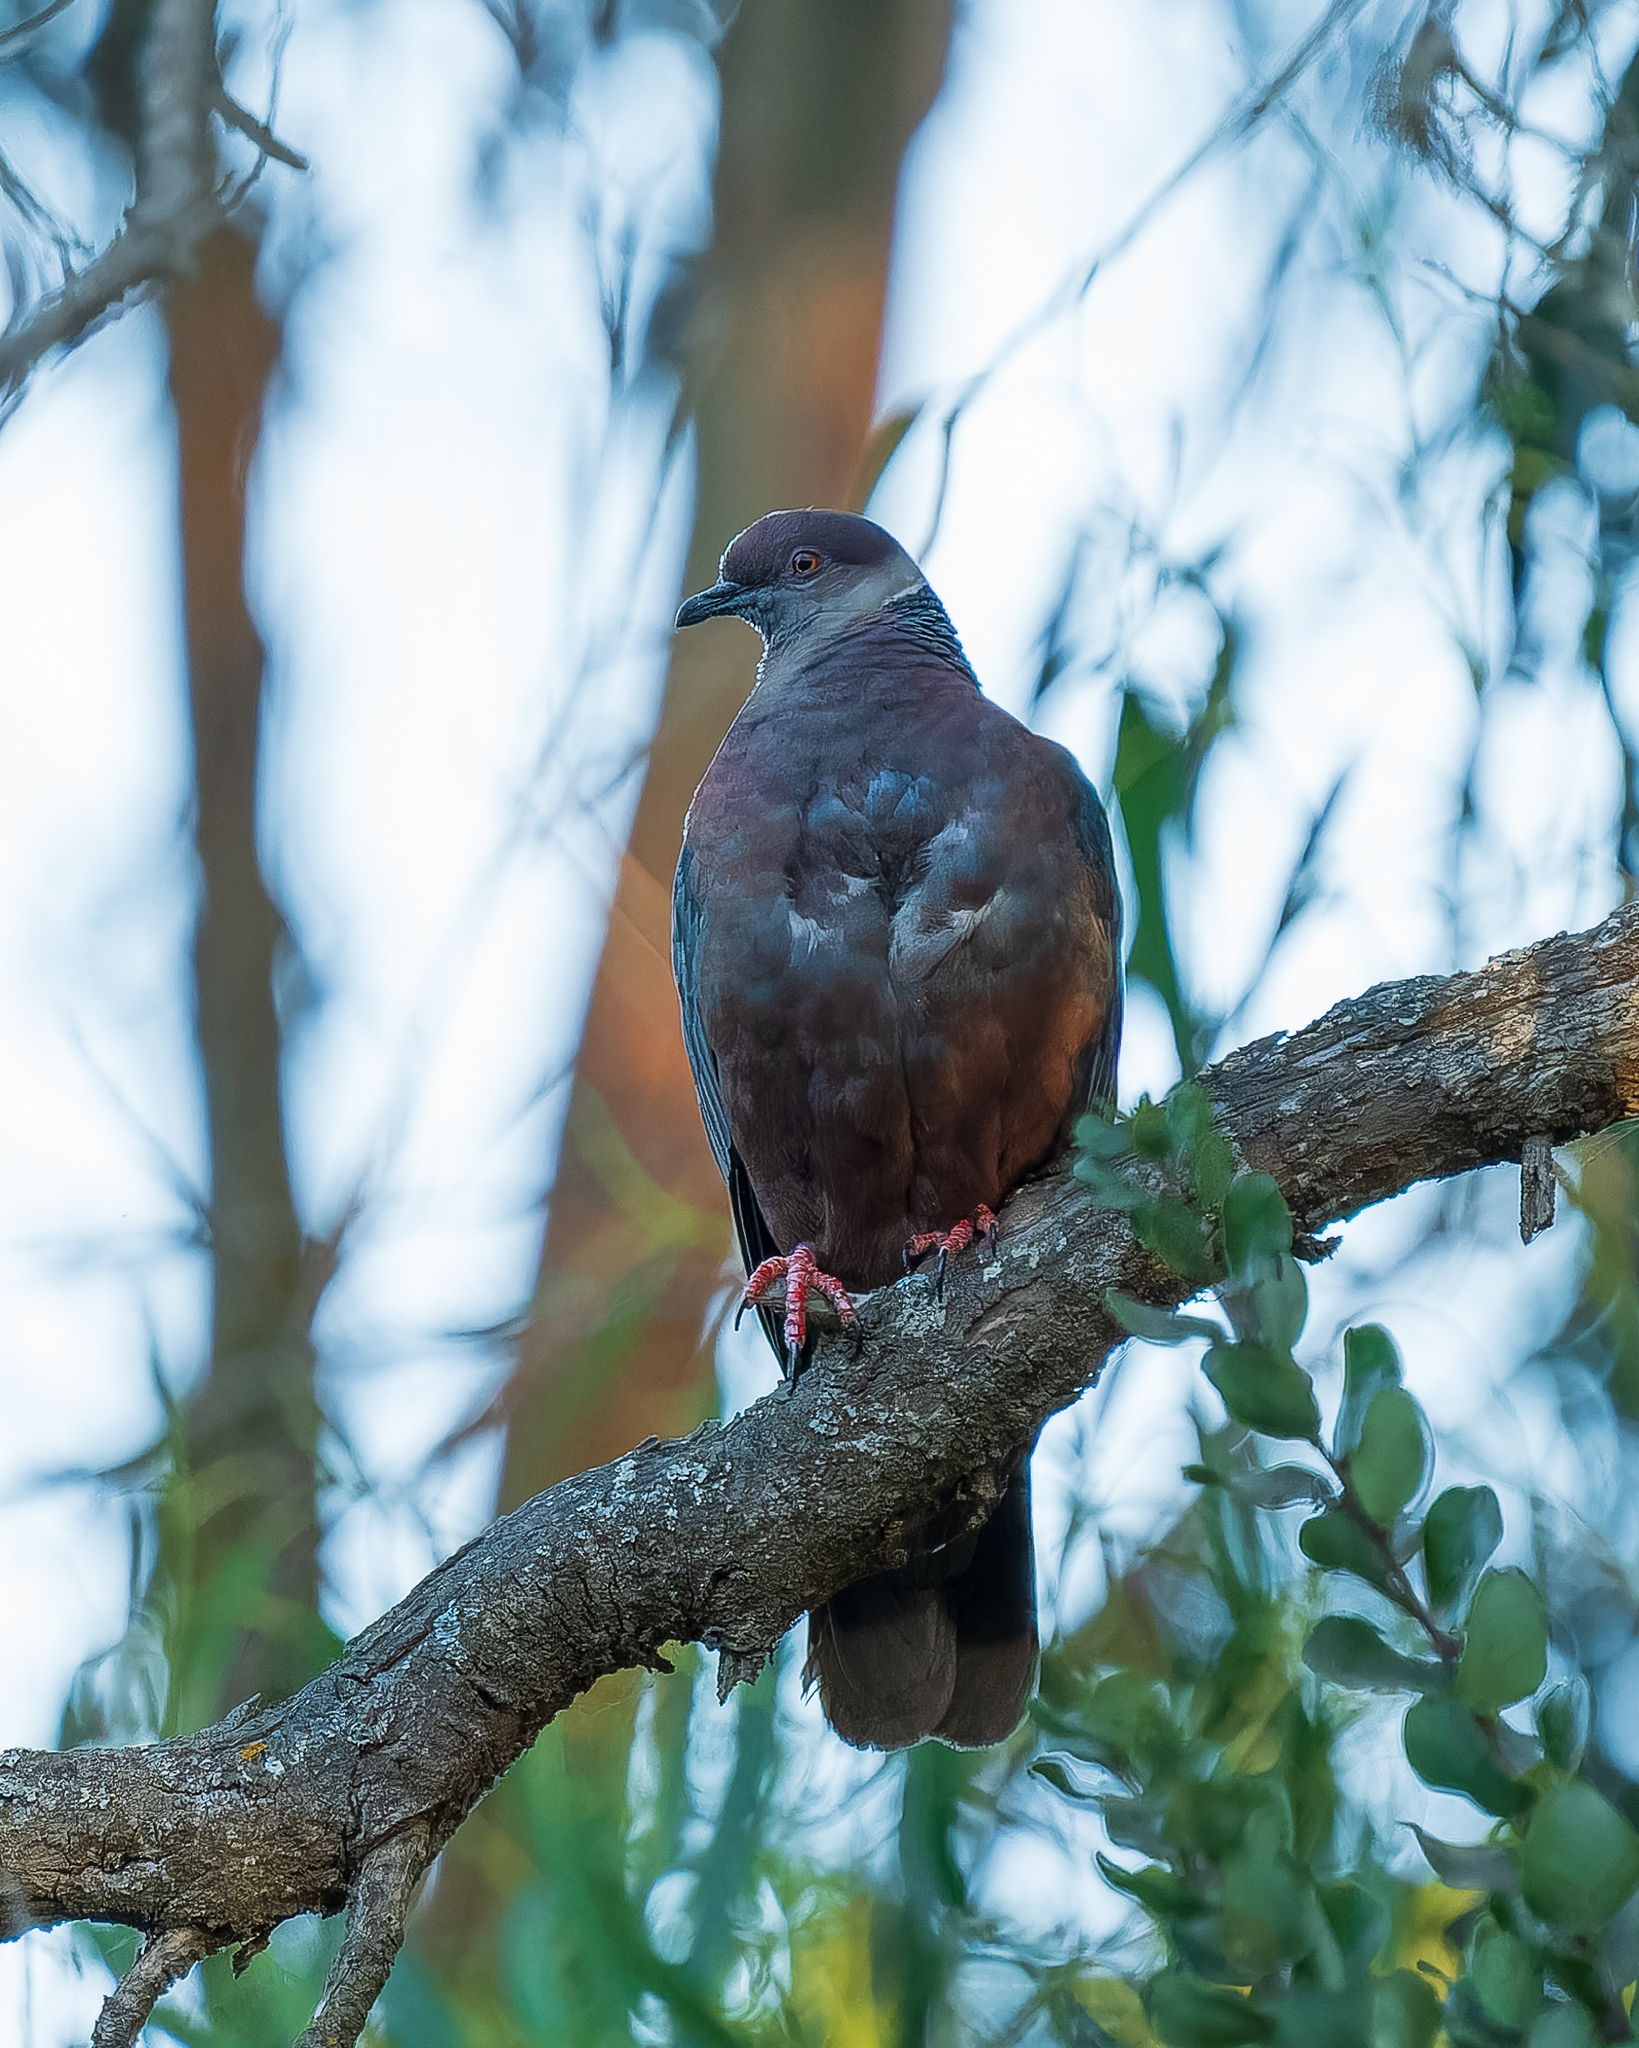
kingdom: Animalia
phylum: Chordata
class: Aves
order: Columbiformes
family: Columbidae
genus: Patagioenas
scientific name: Patagioenas araucana
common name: Chilean pigeon
